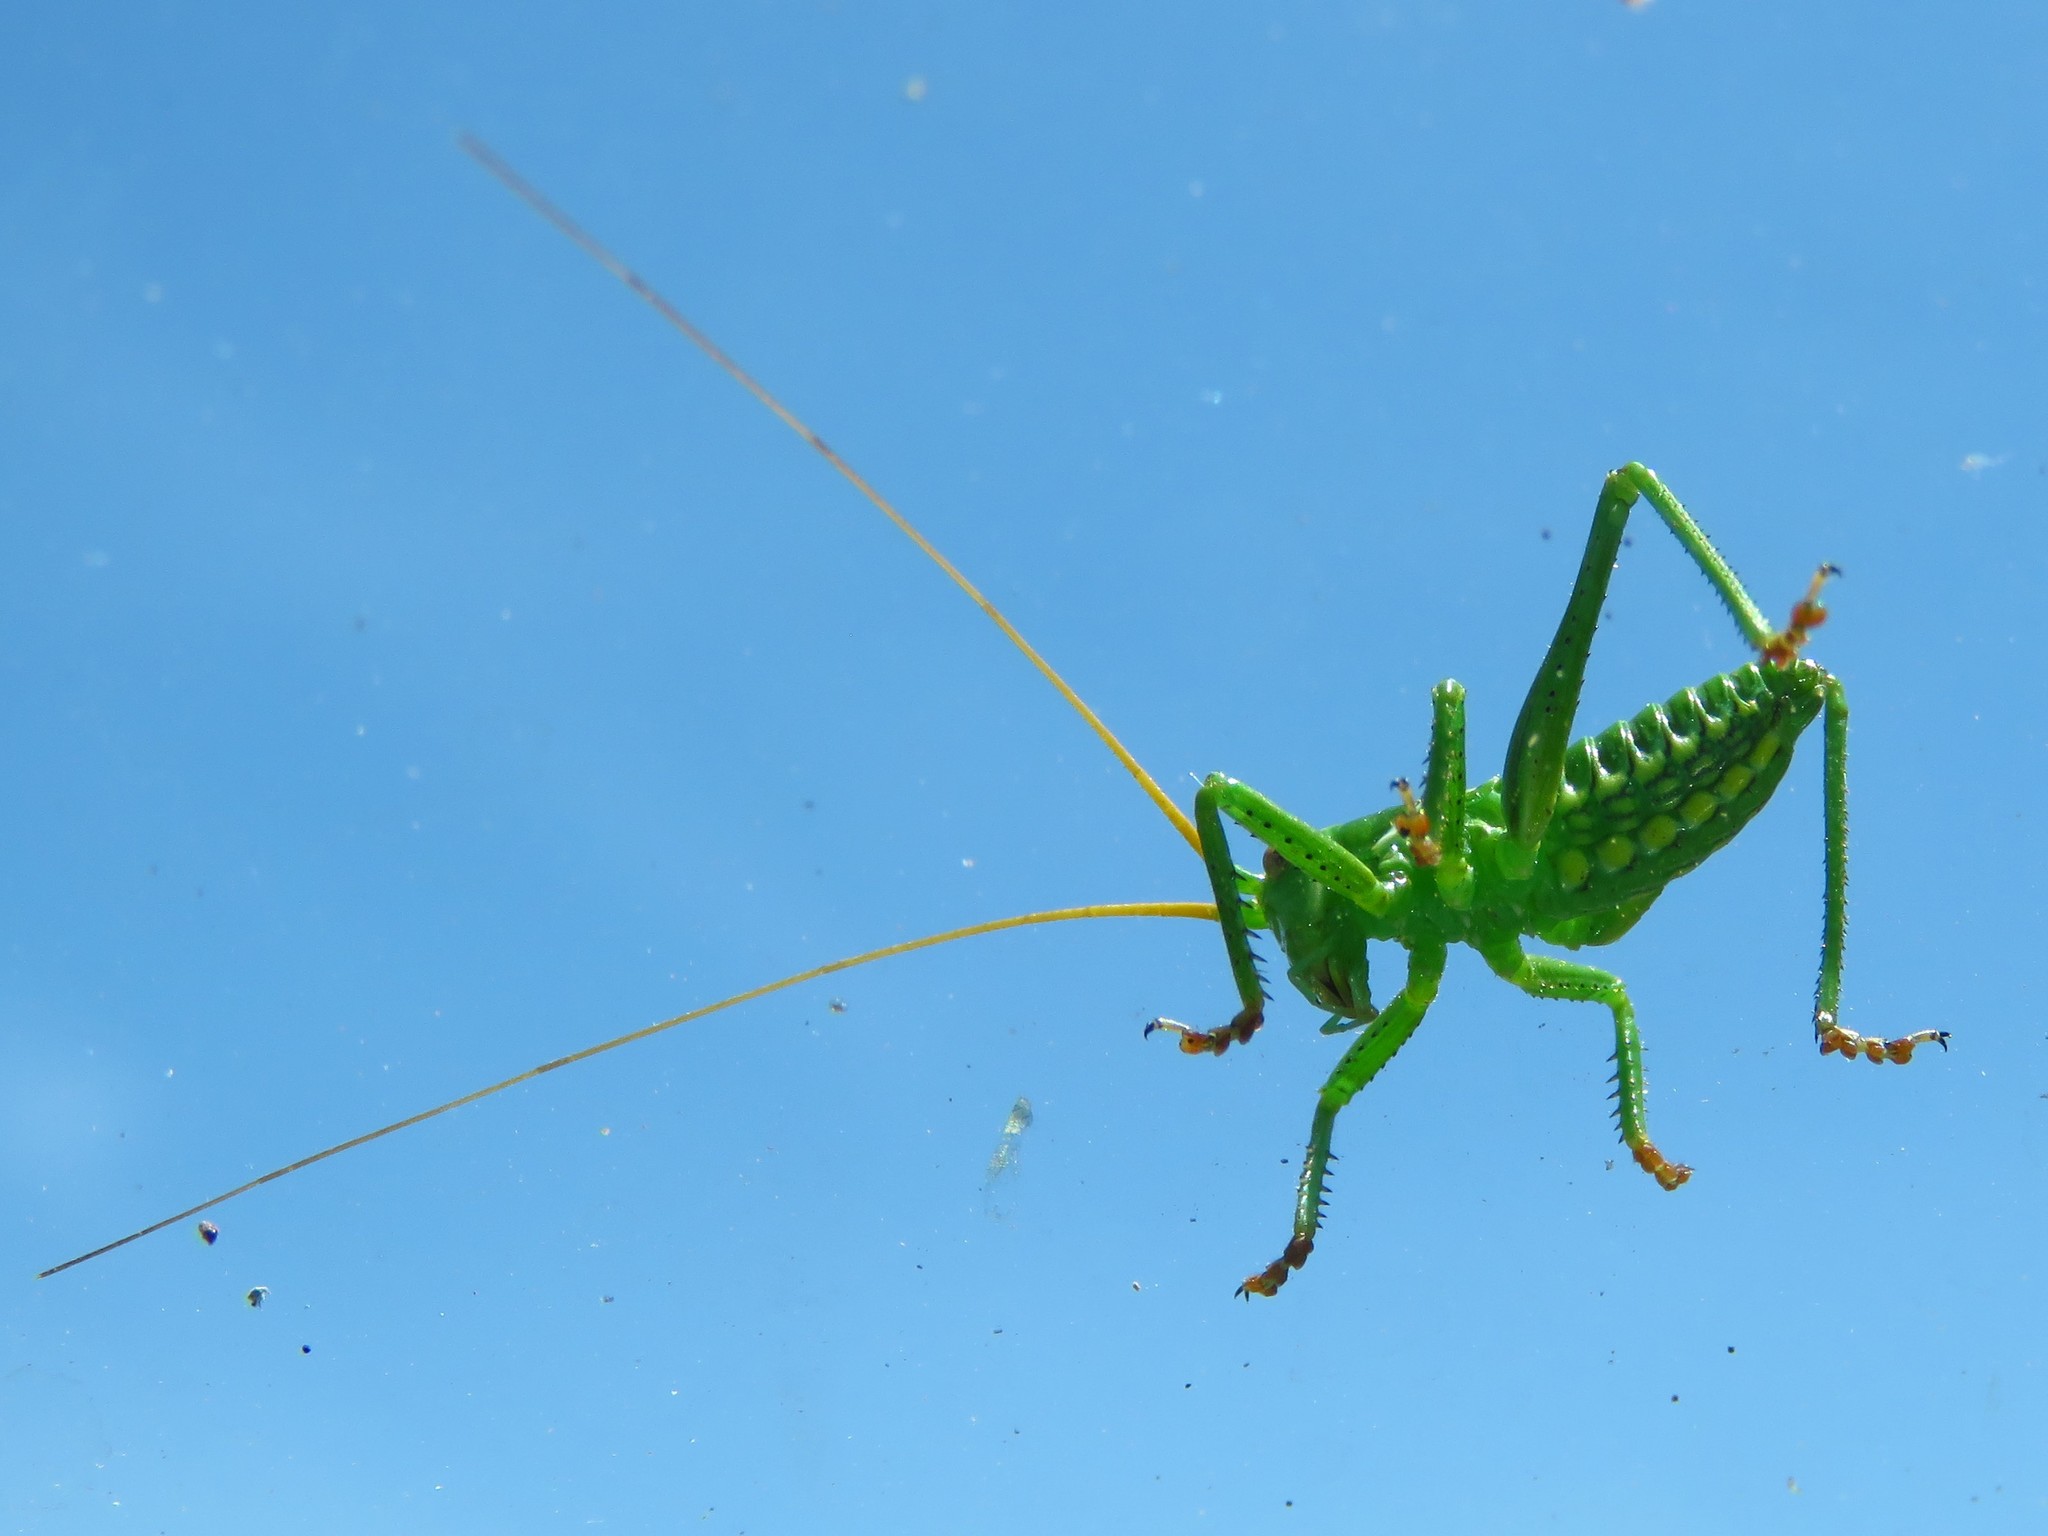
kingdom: Animalia
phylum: Arthropoda
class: Insecta
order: Orthoptera
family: Tettigoniidae
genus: Neobarrettia
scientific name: Neobarrettia spinosa
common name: Greater arid-land katydid
